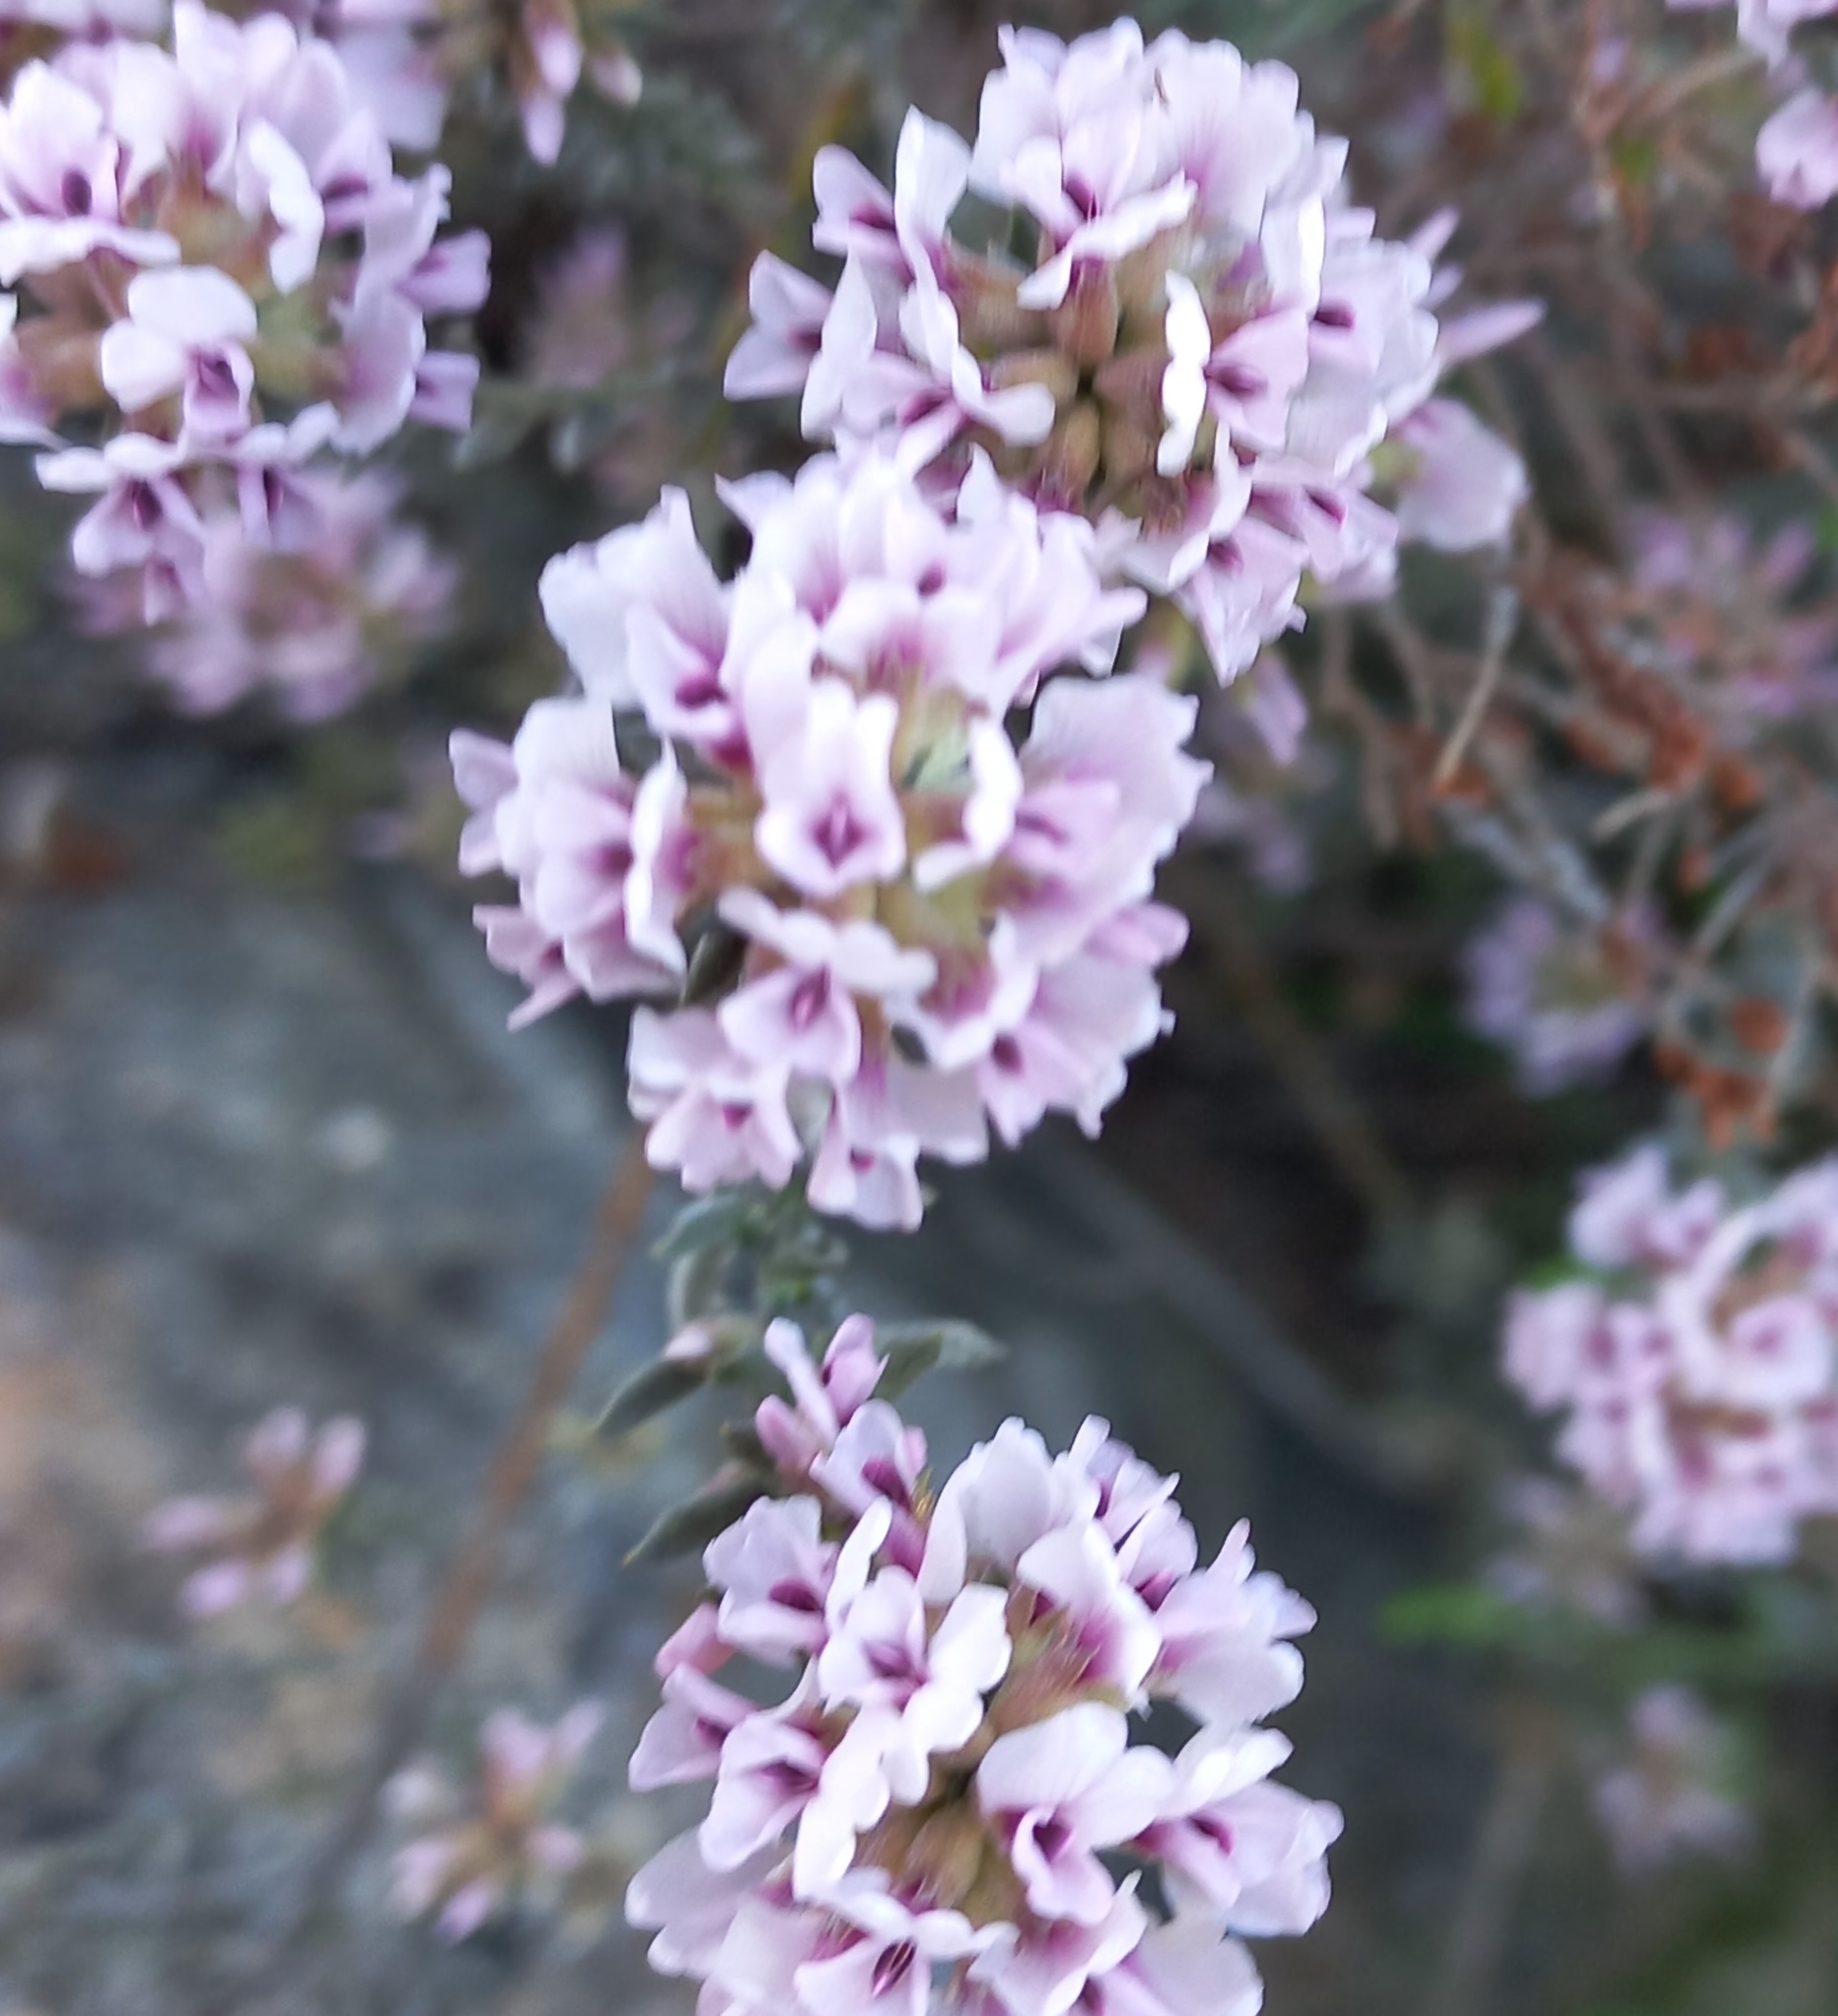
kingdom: Plantae
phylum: Tracheophyta
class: Magnoliopsida
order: Fabales
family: Fabaceae
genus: Amphithalea
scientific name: Amphithalea ericifolia
